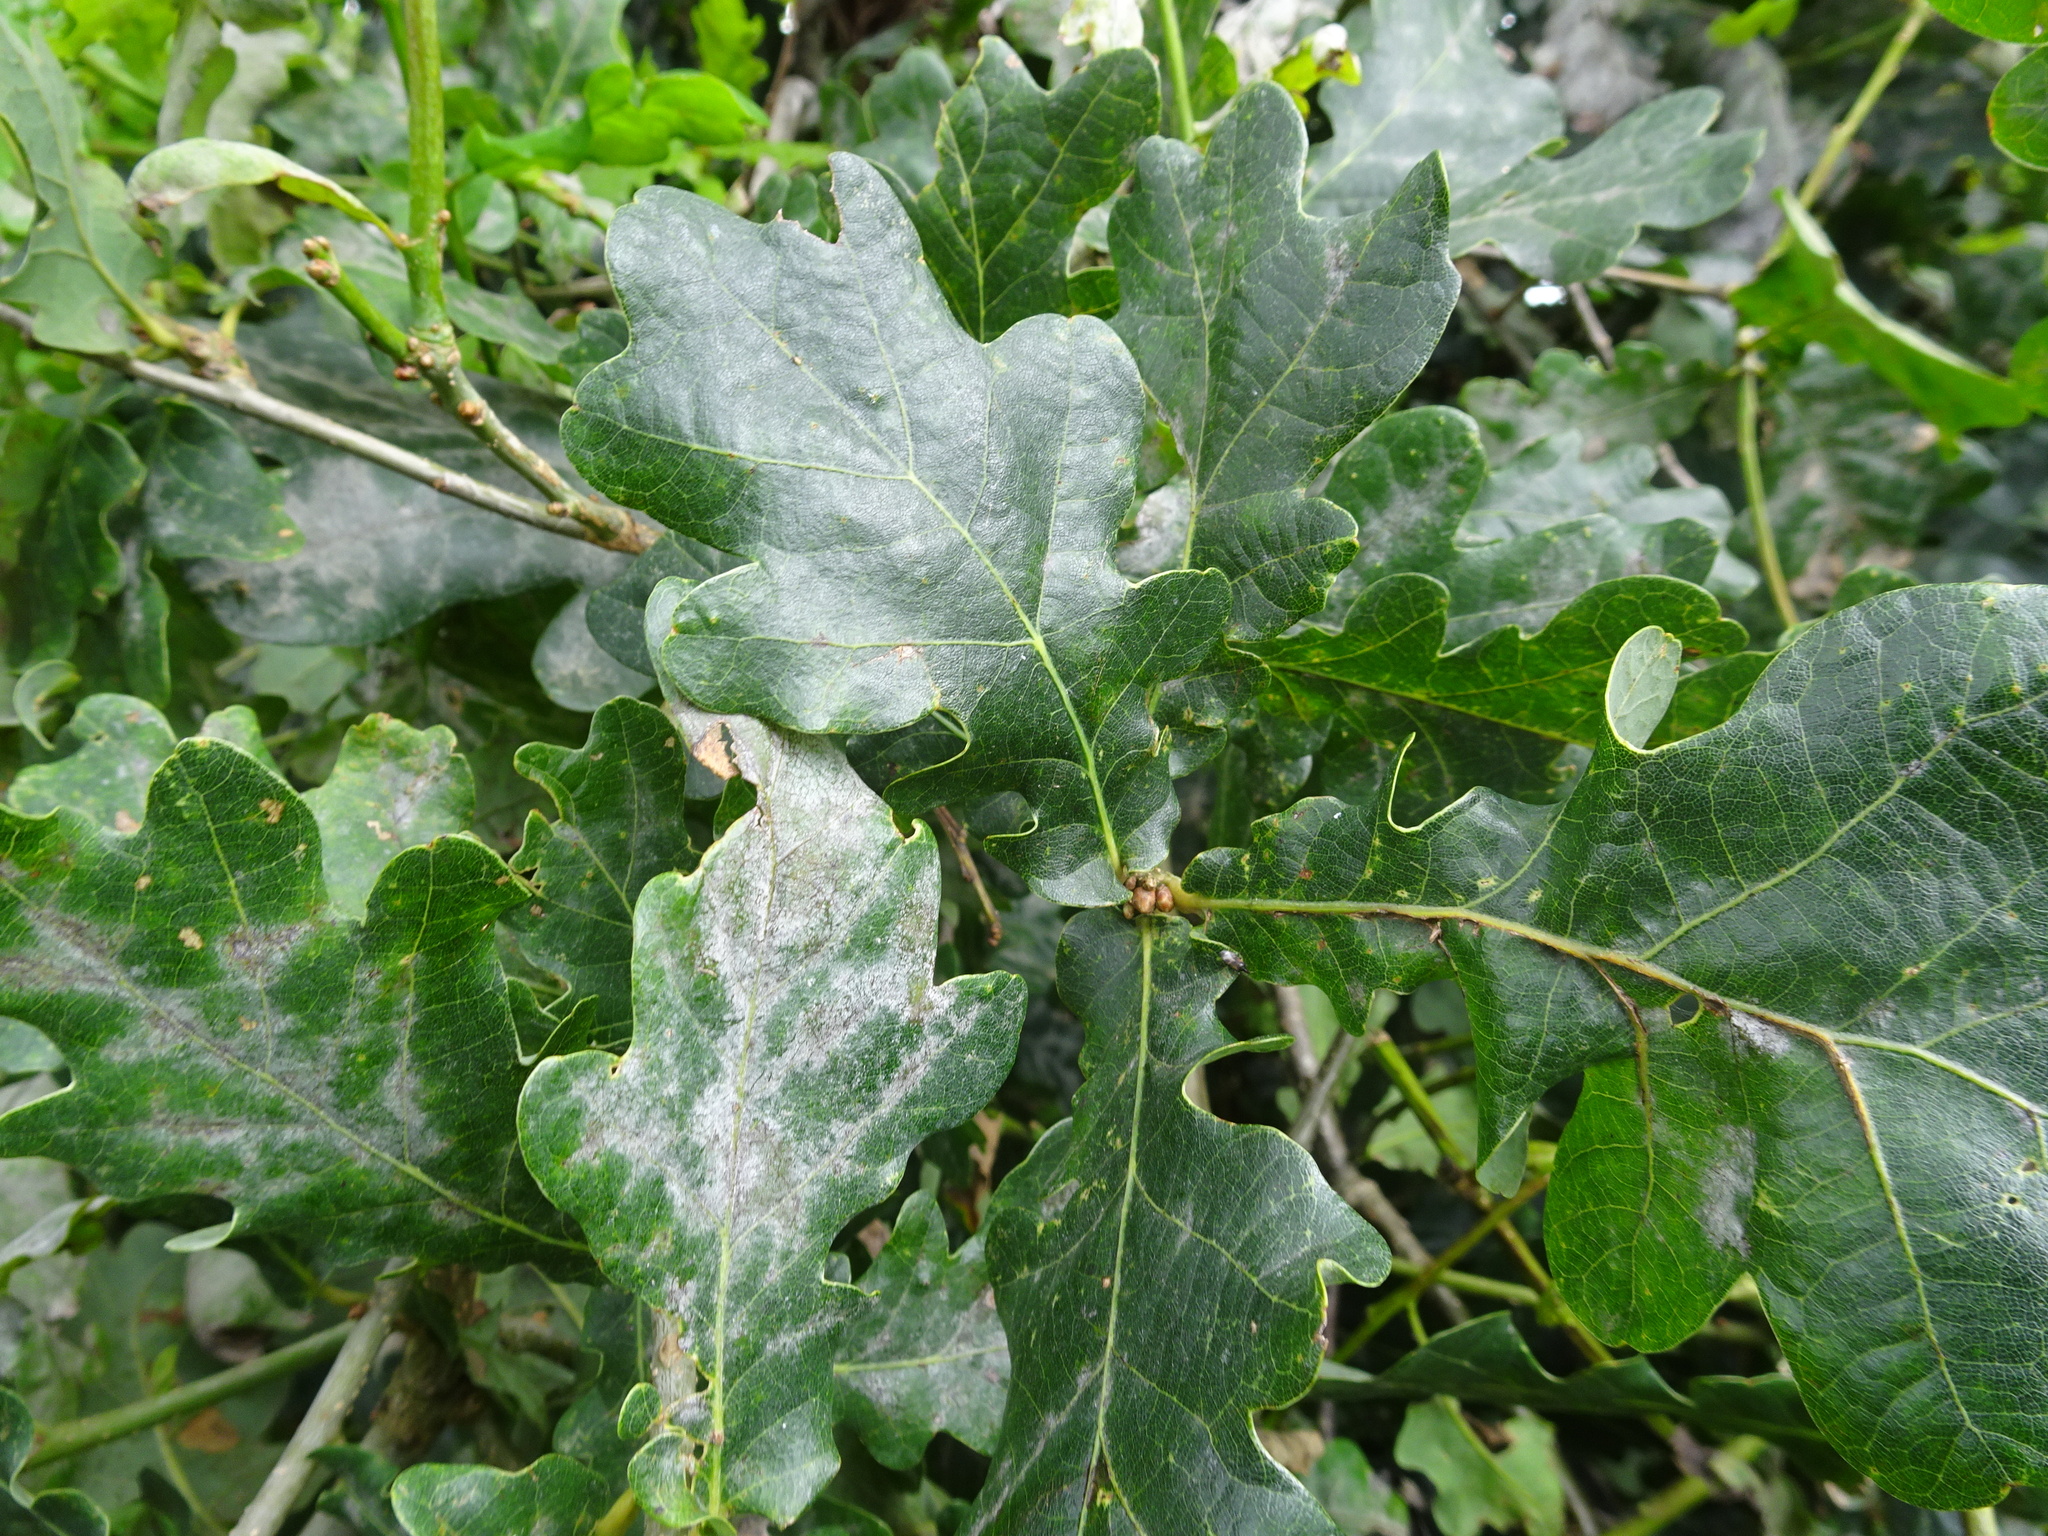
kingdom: Plantae
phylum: Tracheophyta
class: Magnoliopsida
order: Fagales
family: Fagaceae
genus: Quercus
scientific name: Quercus robur
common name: Pedunculate oak
